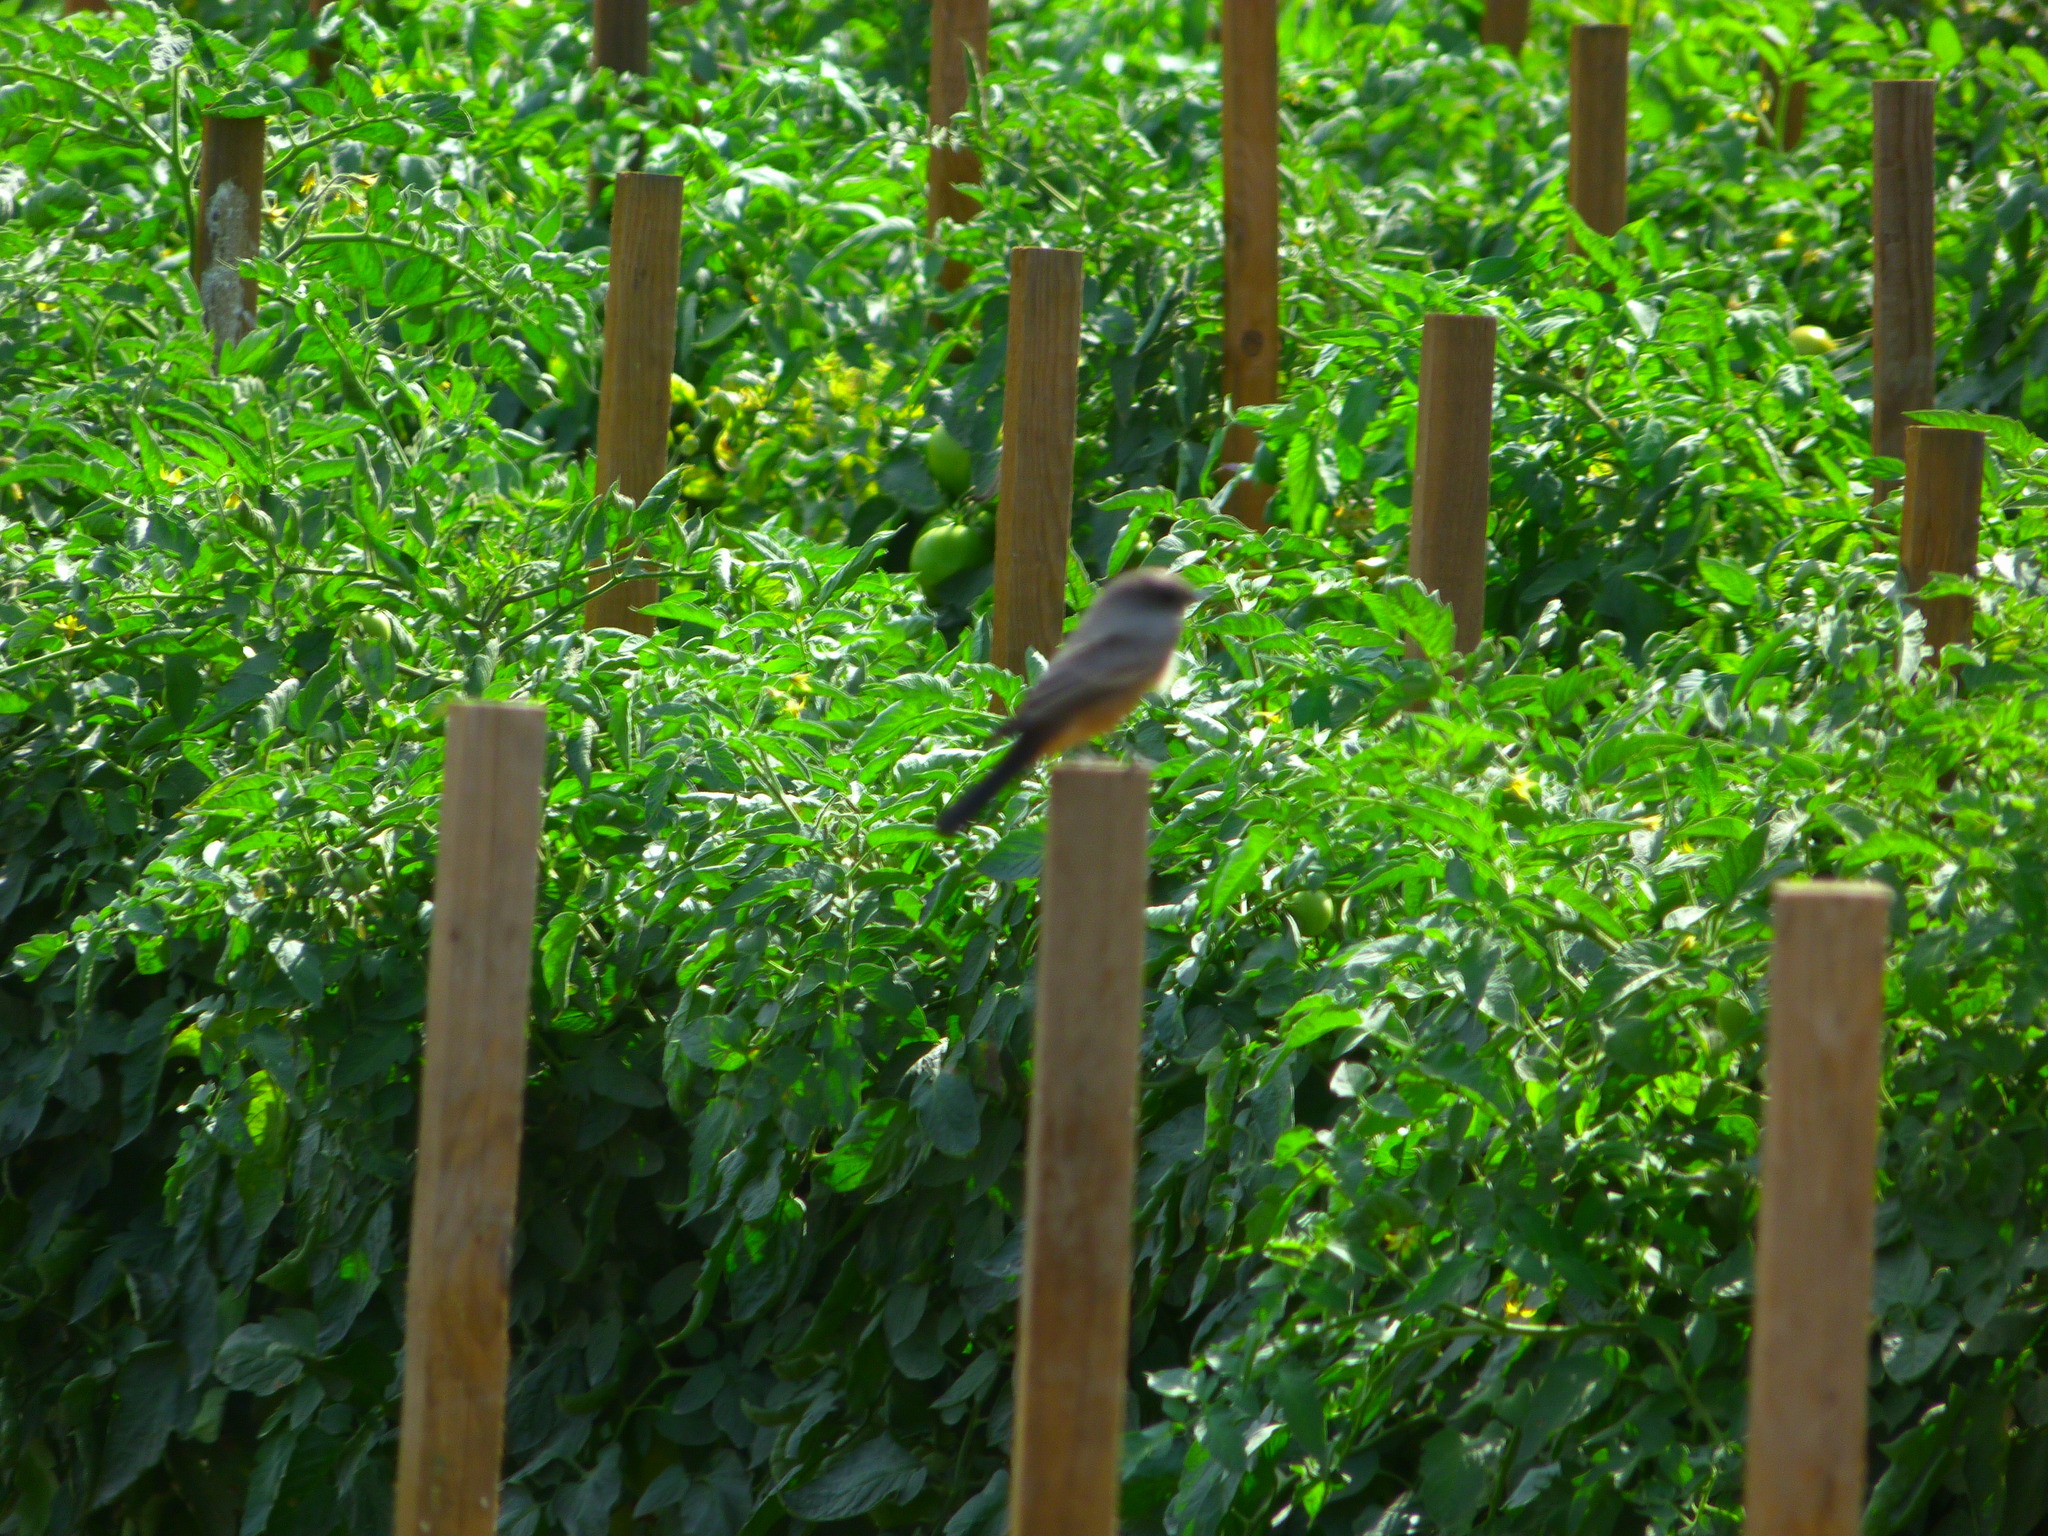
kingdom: Animalia
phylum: Chordata
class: Aves
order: Passeriformes
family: Tyrannidae
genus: Sayornis
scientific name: Sayornis saya
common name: Say's phoebe
